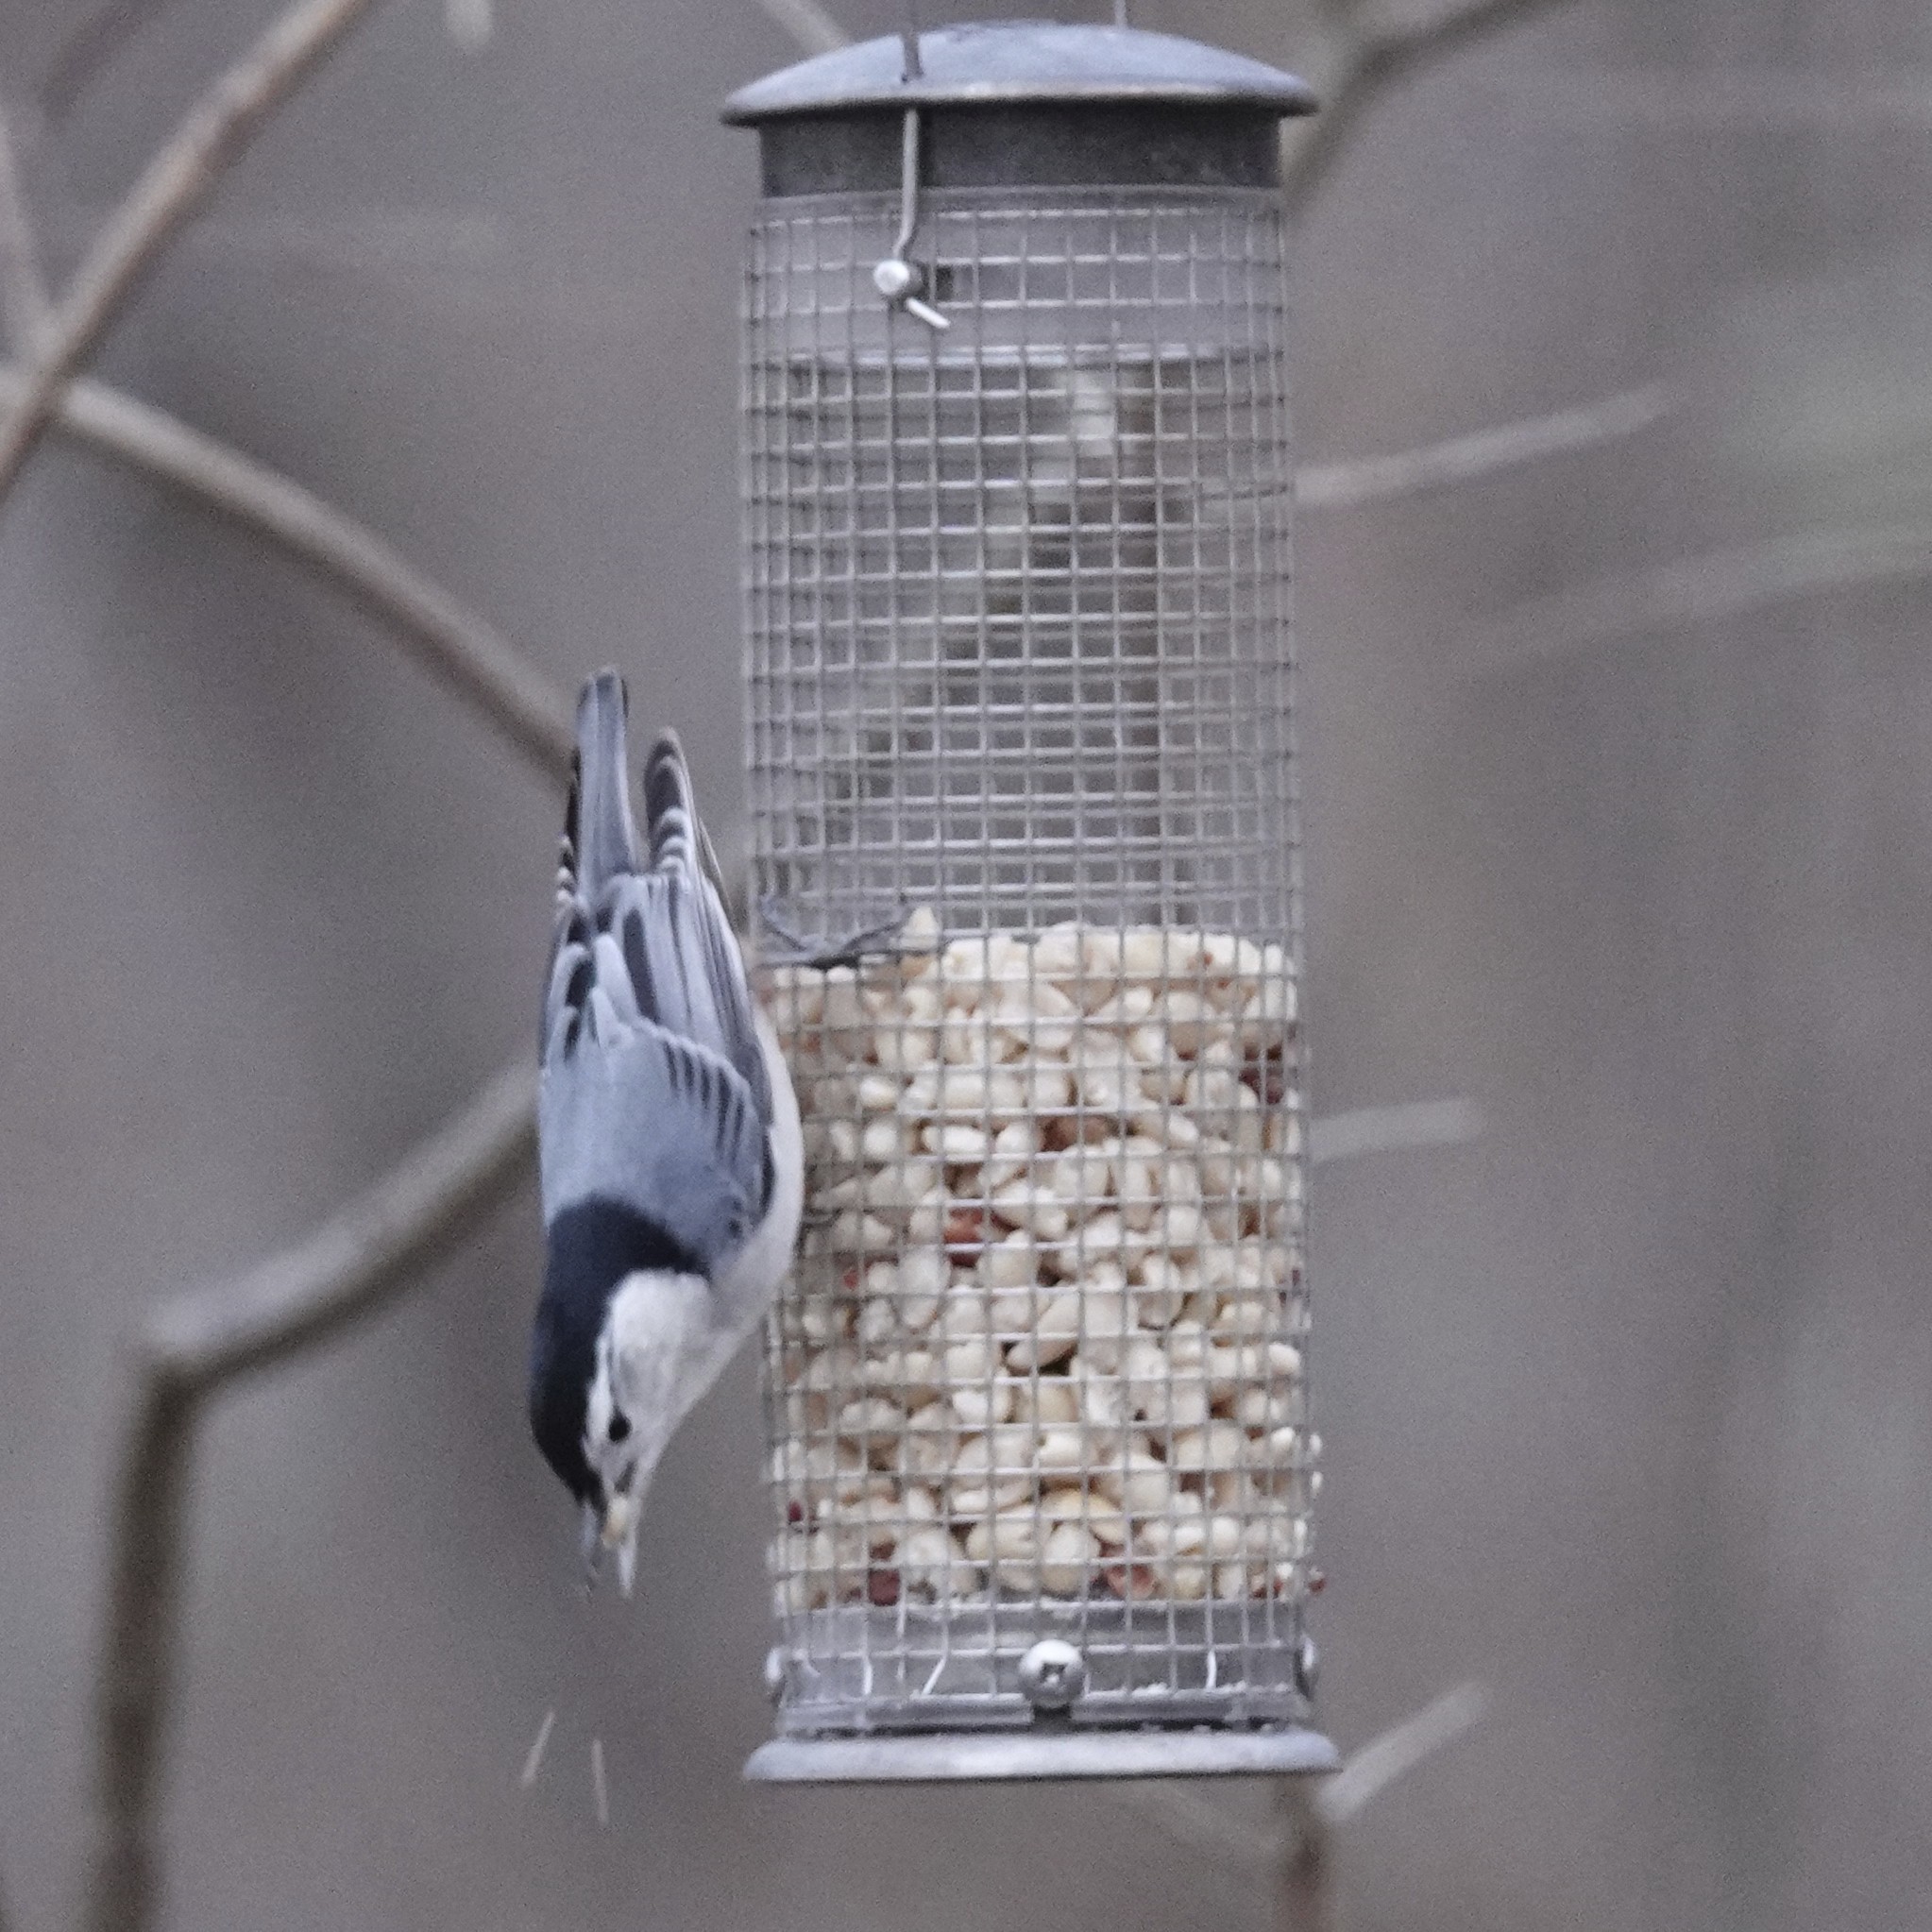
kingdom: Animalia
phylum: Chordata
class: Aves
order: Passeriformes
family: Sittidae
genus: Sitta
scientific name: Sitta carolinensis
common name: White-breasted nuthatch
